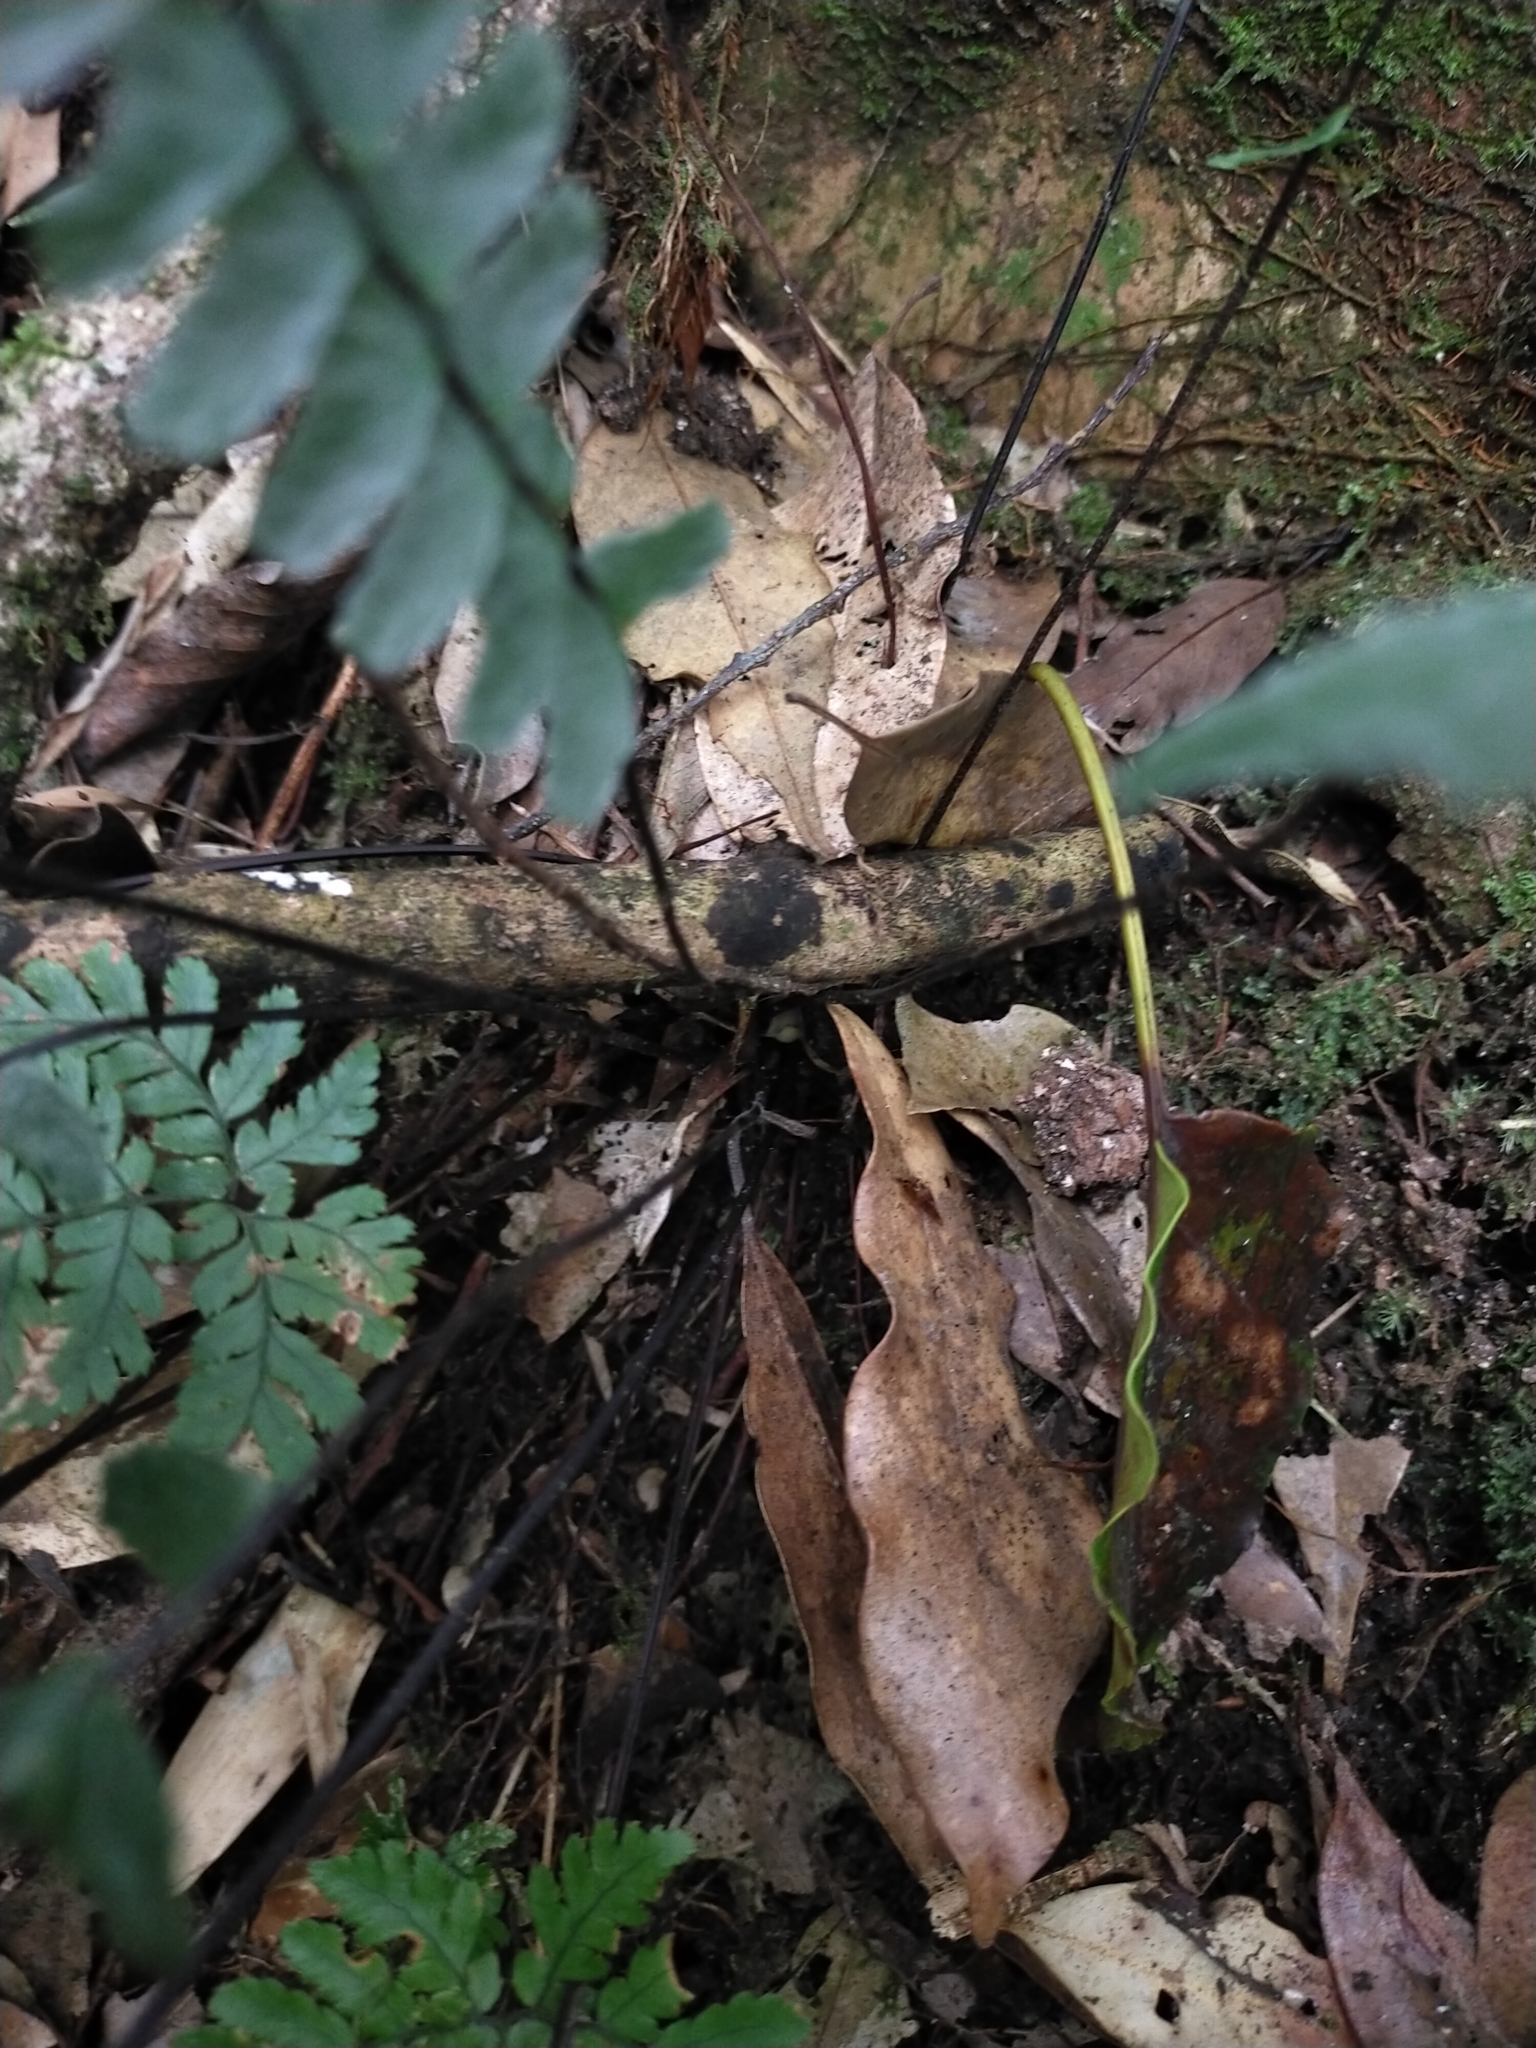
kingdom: Plantae
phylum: Tracheophyta
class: Polypodiopsida
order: Polypodiales
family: Aspleniaceae
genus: Asplenium
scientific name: Asplenium normale
